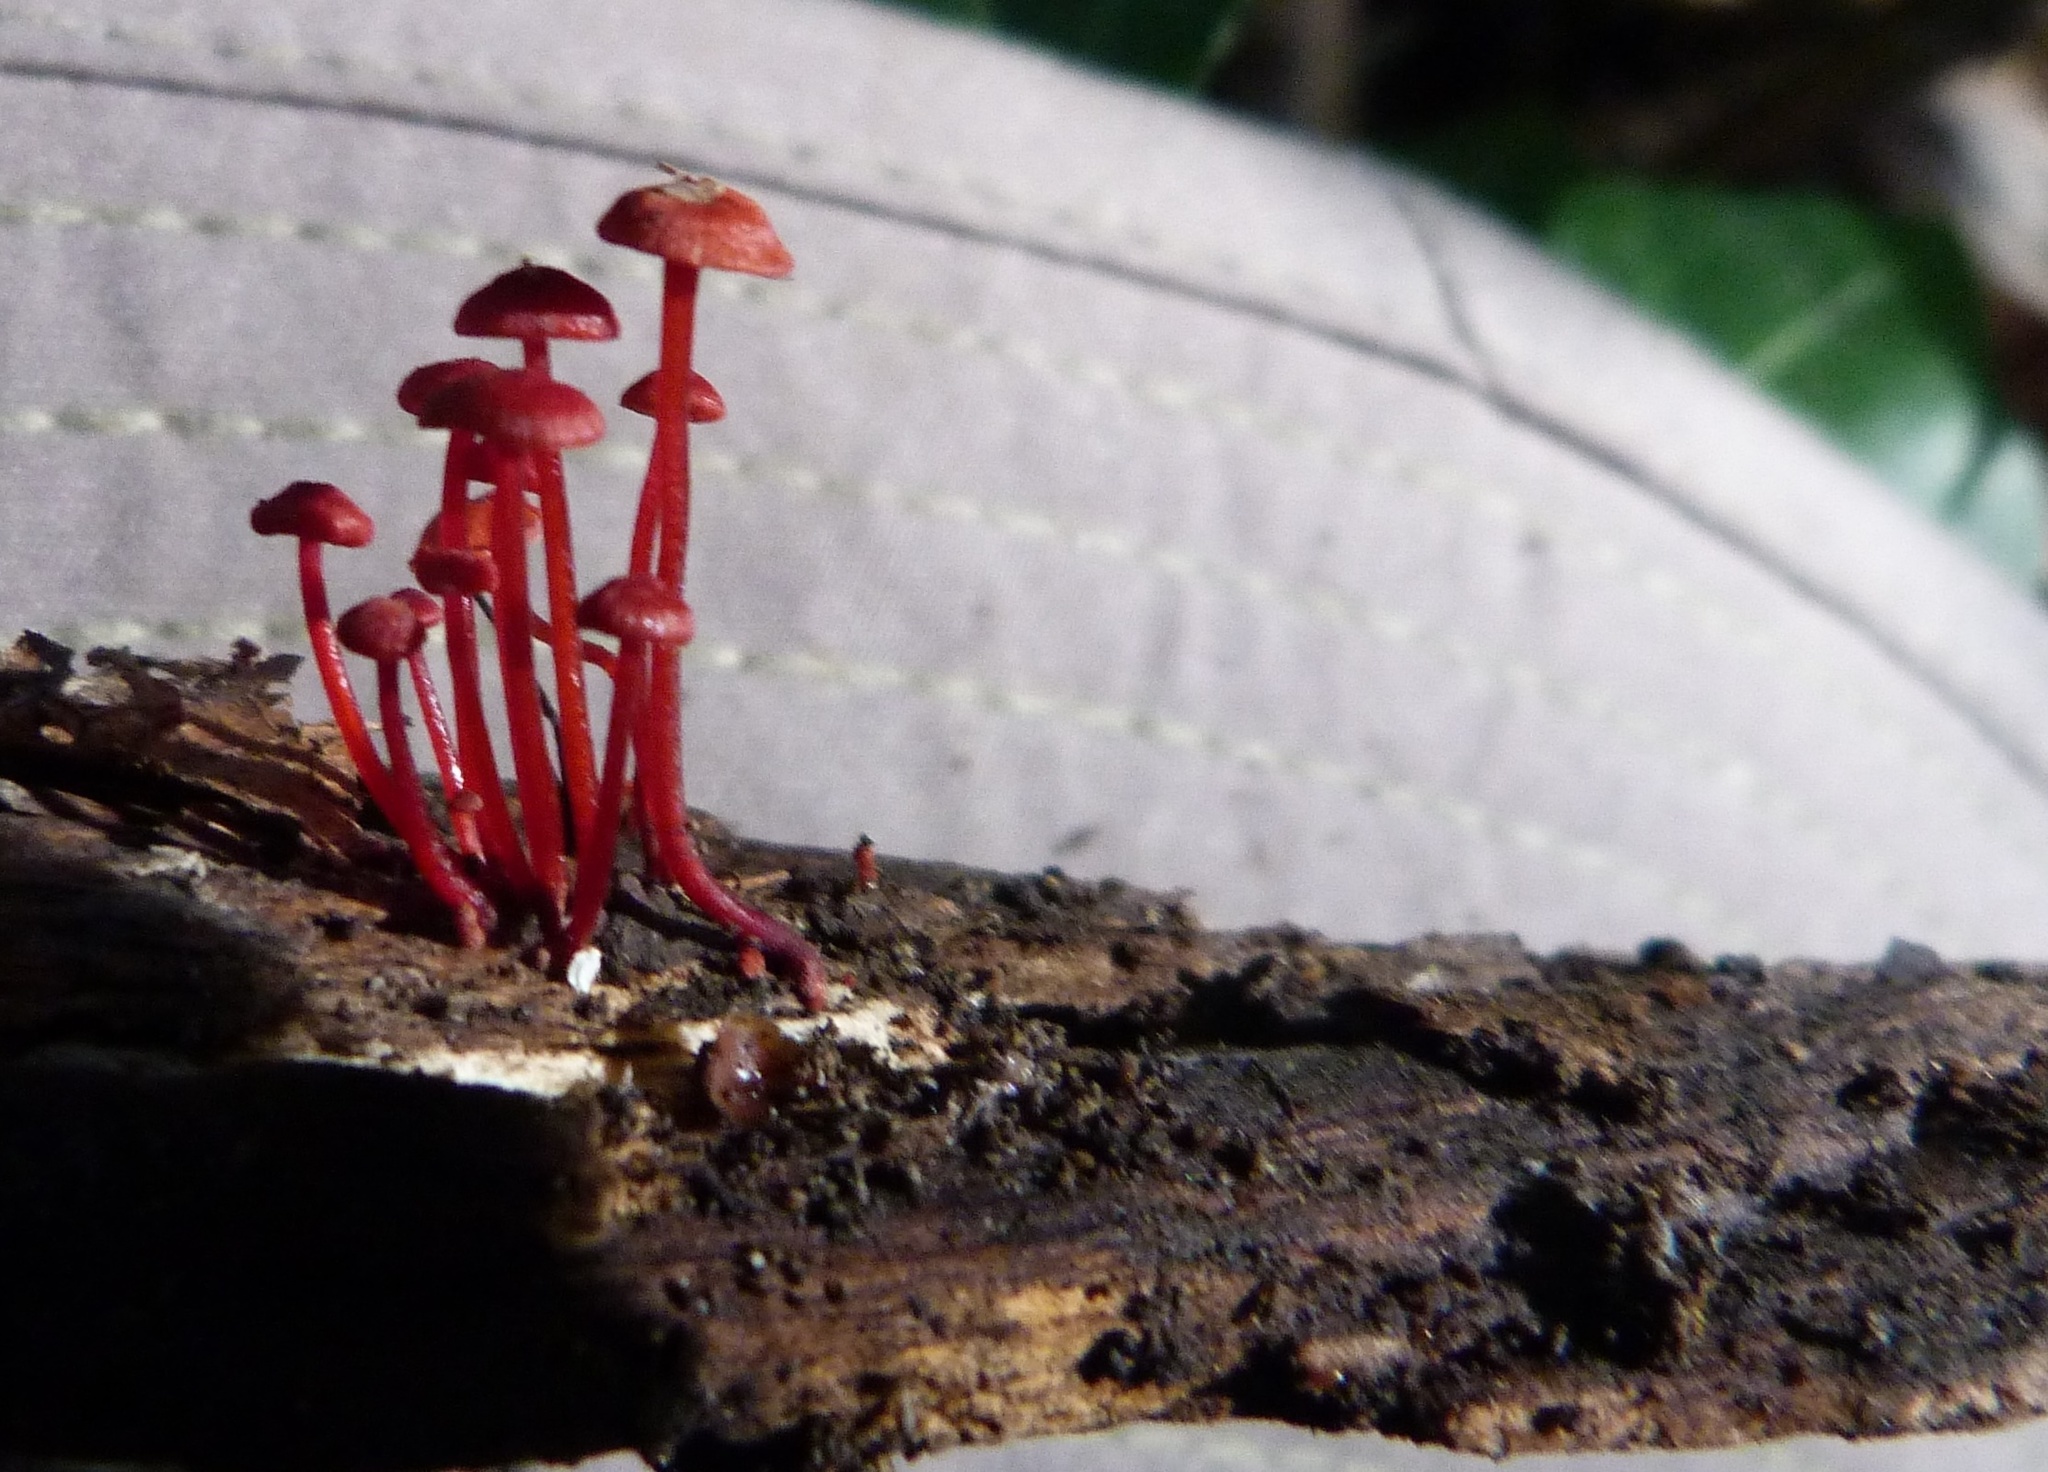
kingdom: Fungi
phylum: Basidiomycota
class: Agaricomycetes
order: Agaricales
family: Mycenaceae
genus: Cruentomycena
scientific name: Cruentomycena viscidocruenta
